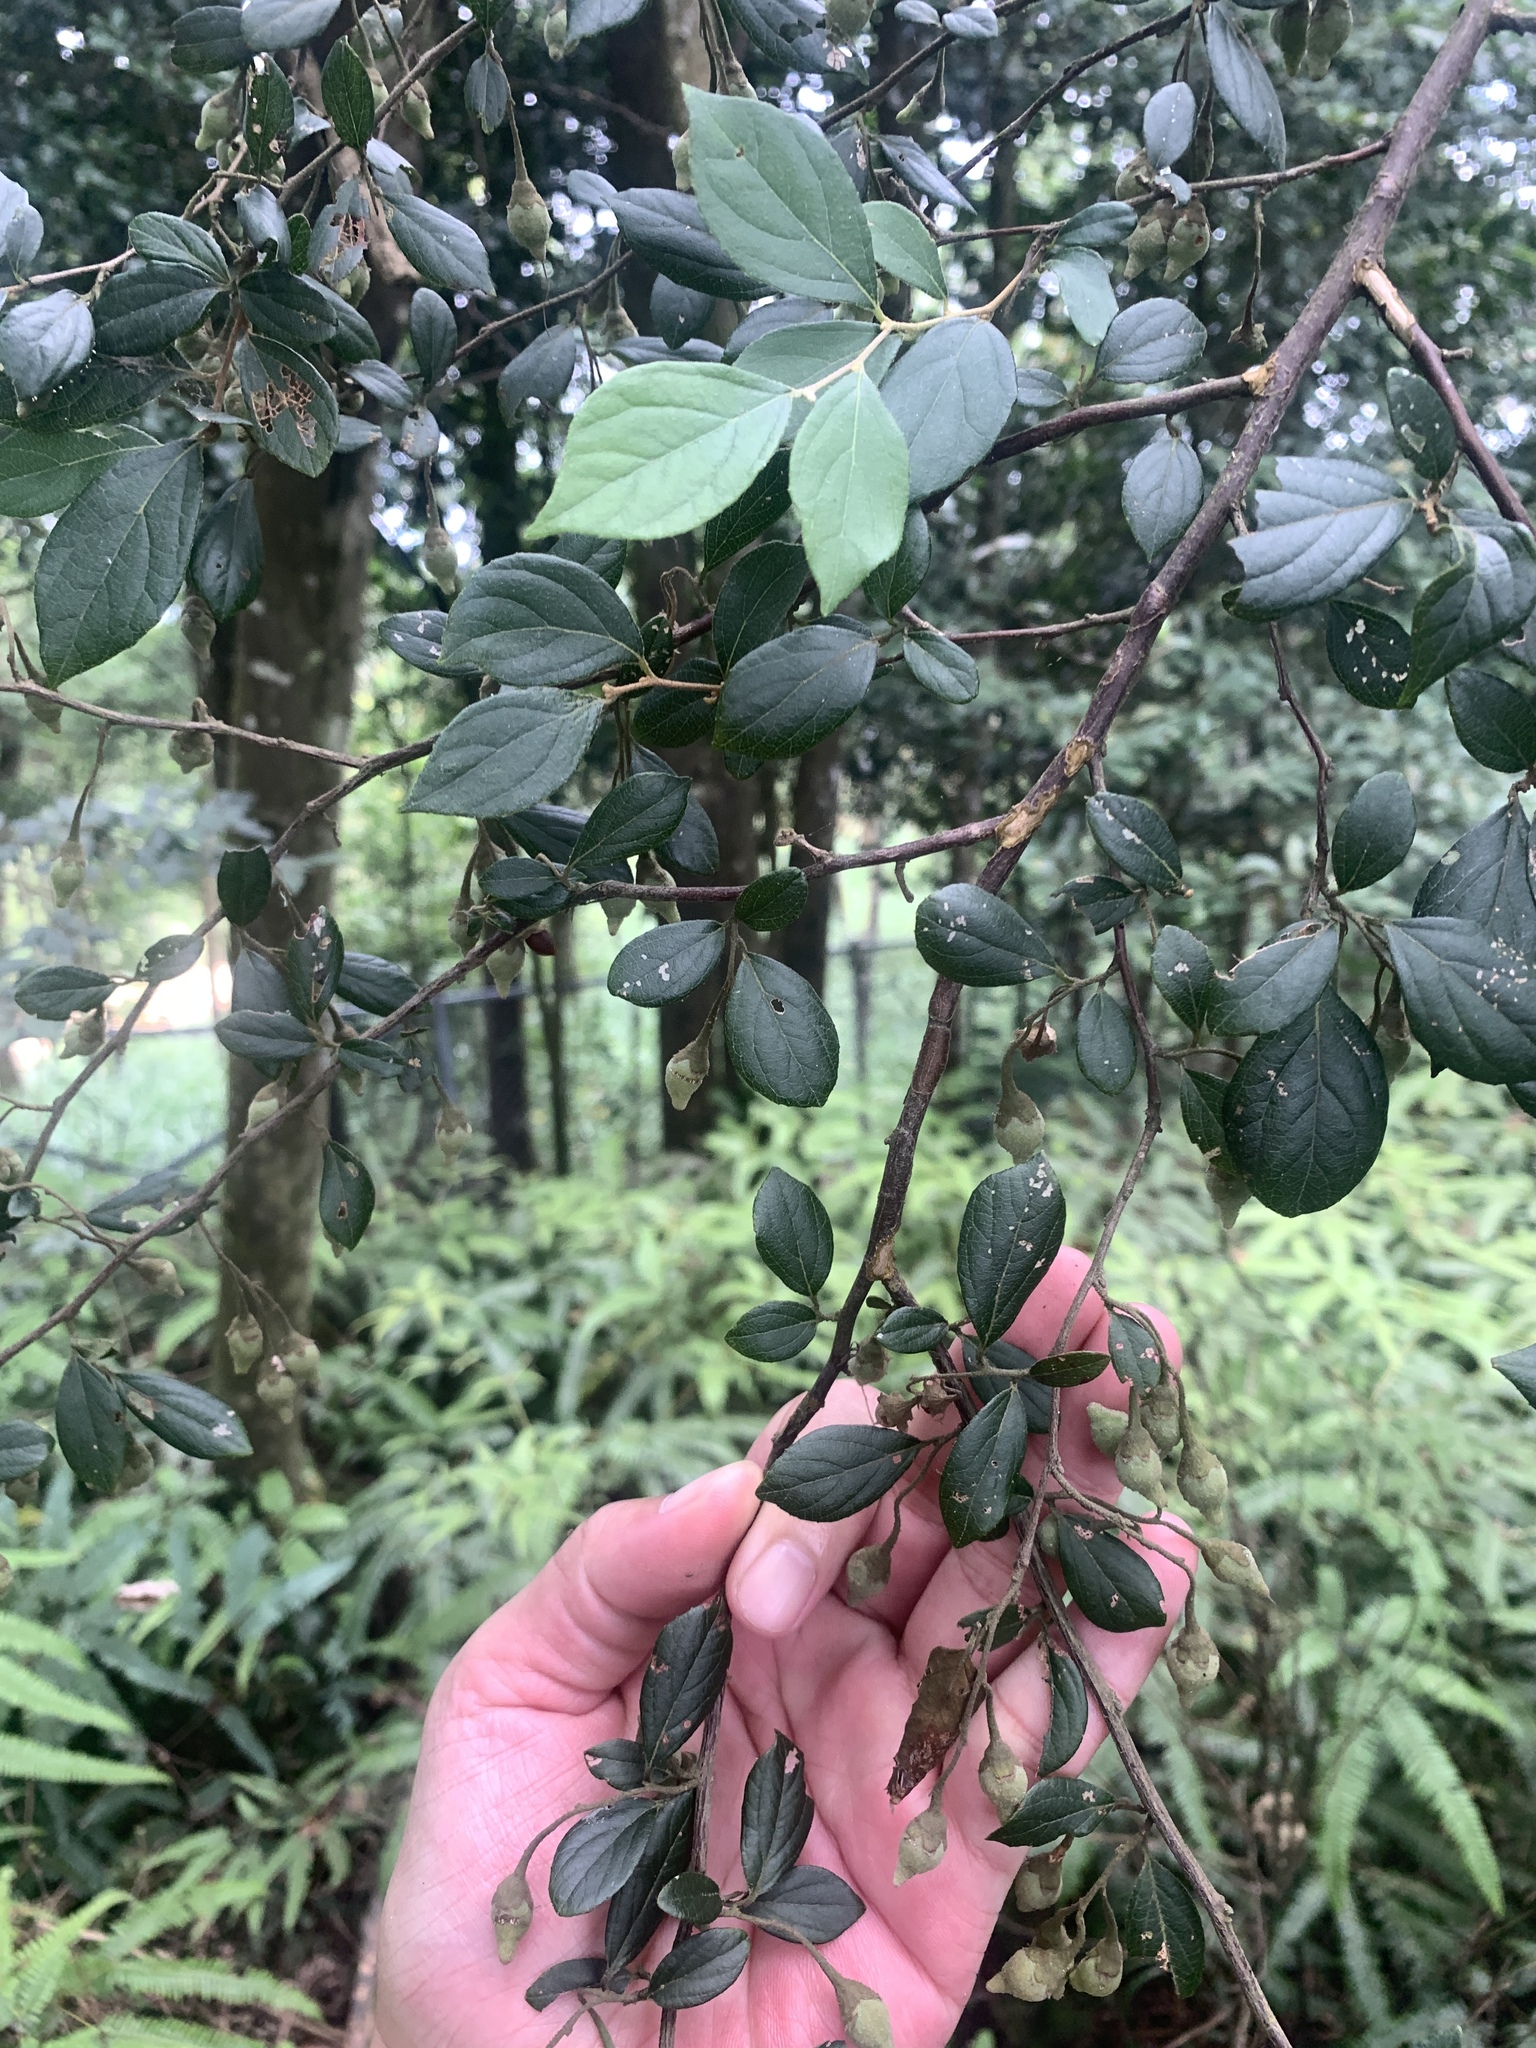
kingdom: Plantae
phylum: Tracheophyta
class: Magnoliopsida
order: Ericales
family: Styracaceae
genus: Styrax
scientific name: Styrax formosanus
